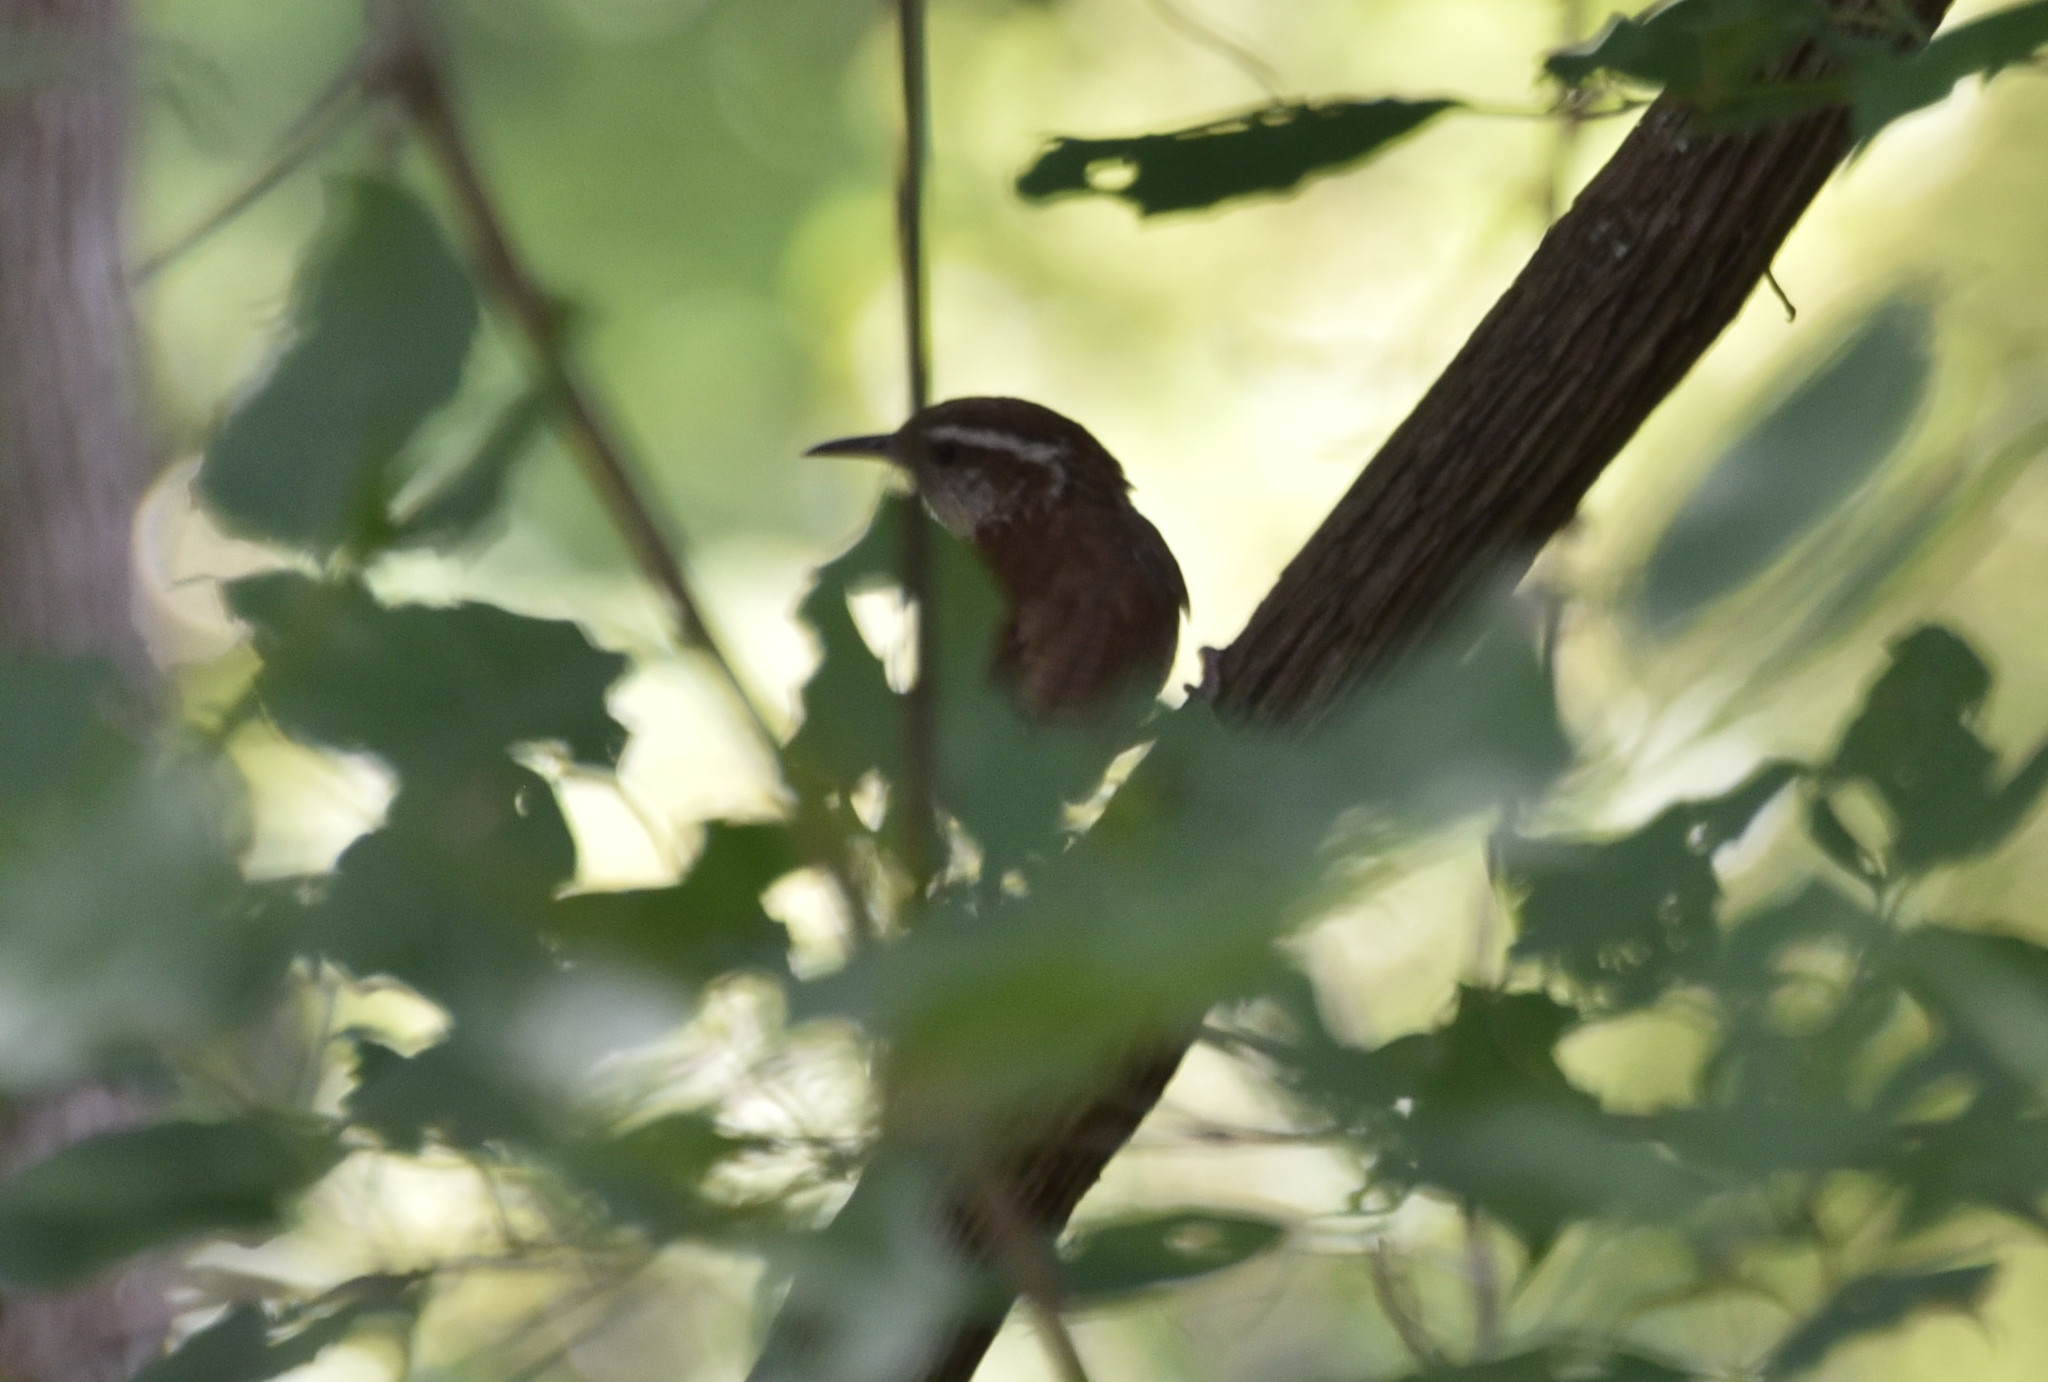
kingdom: Animalia
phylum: Chordata
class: Aves
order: Passeriformes
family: Troglodytidae
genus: Thryothorus
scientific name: Thryothorus ludovicianus
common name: Carolina wren
